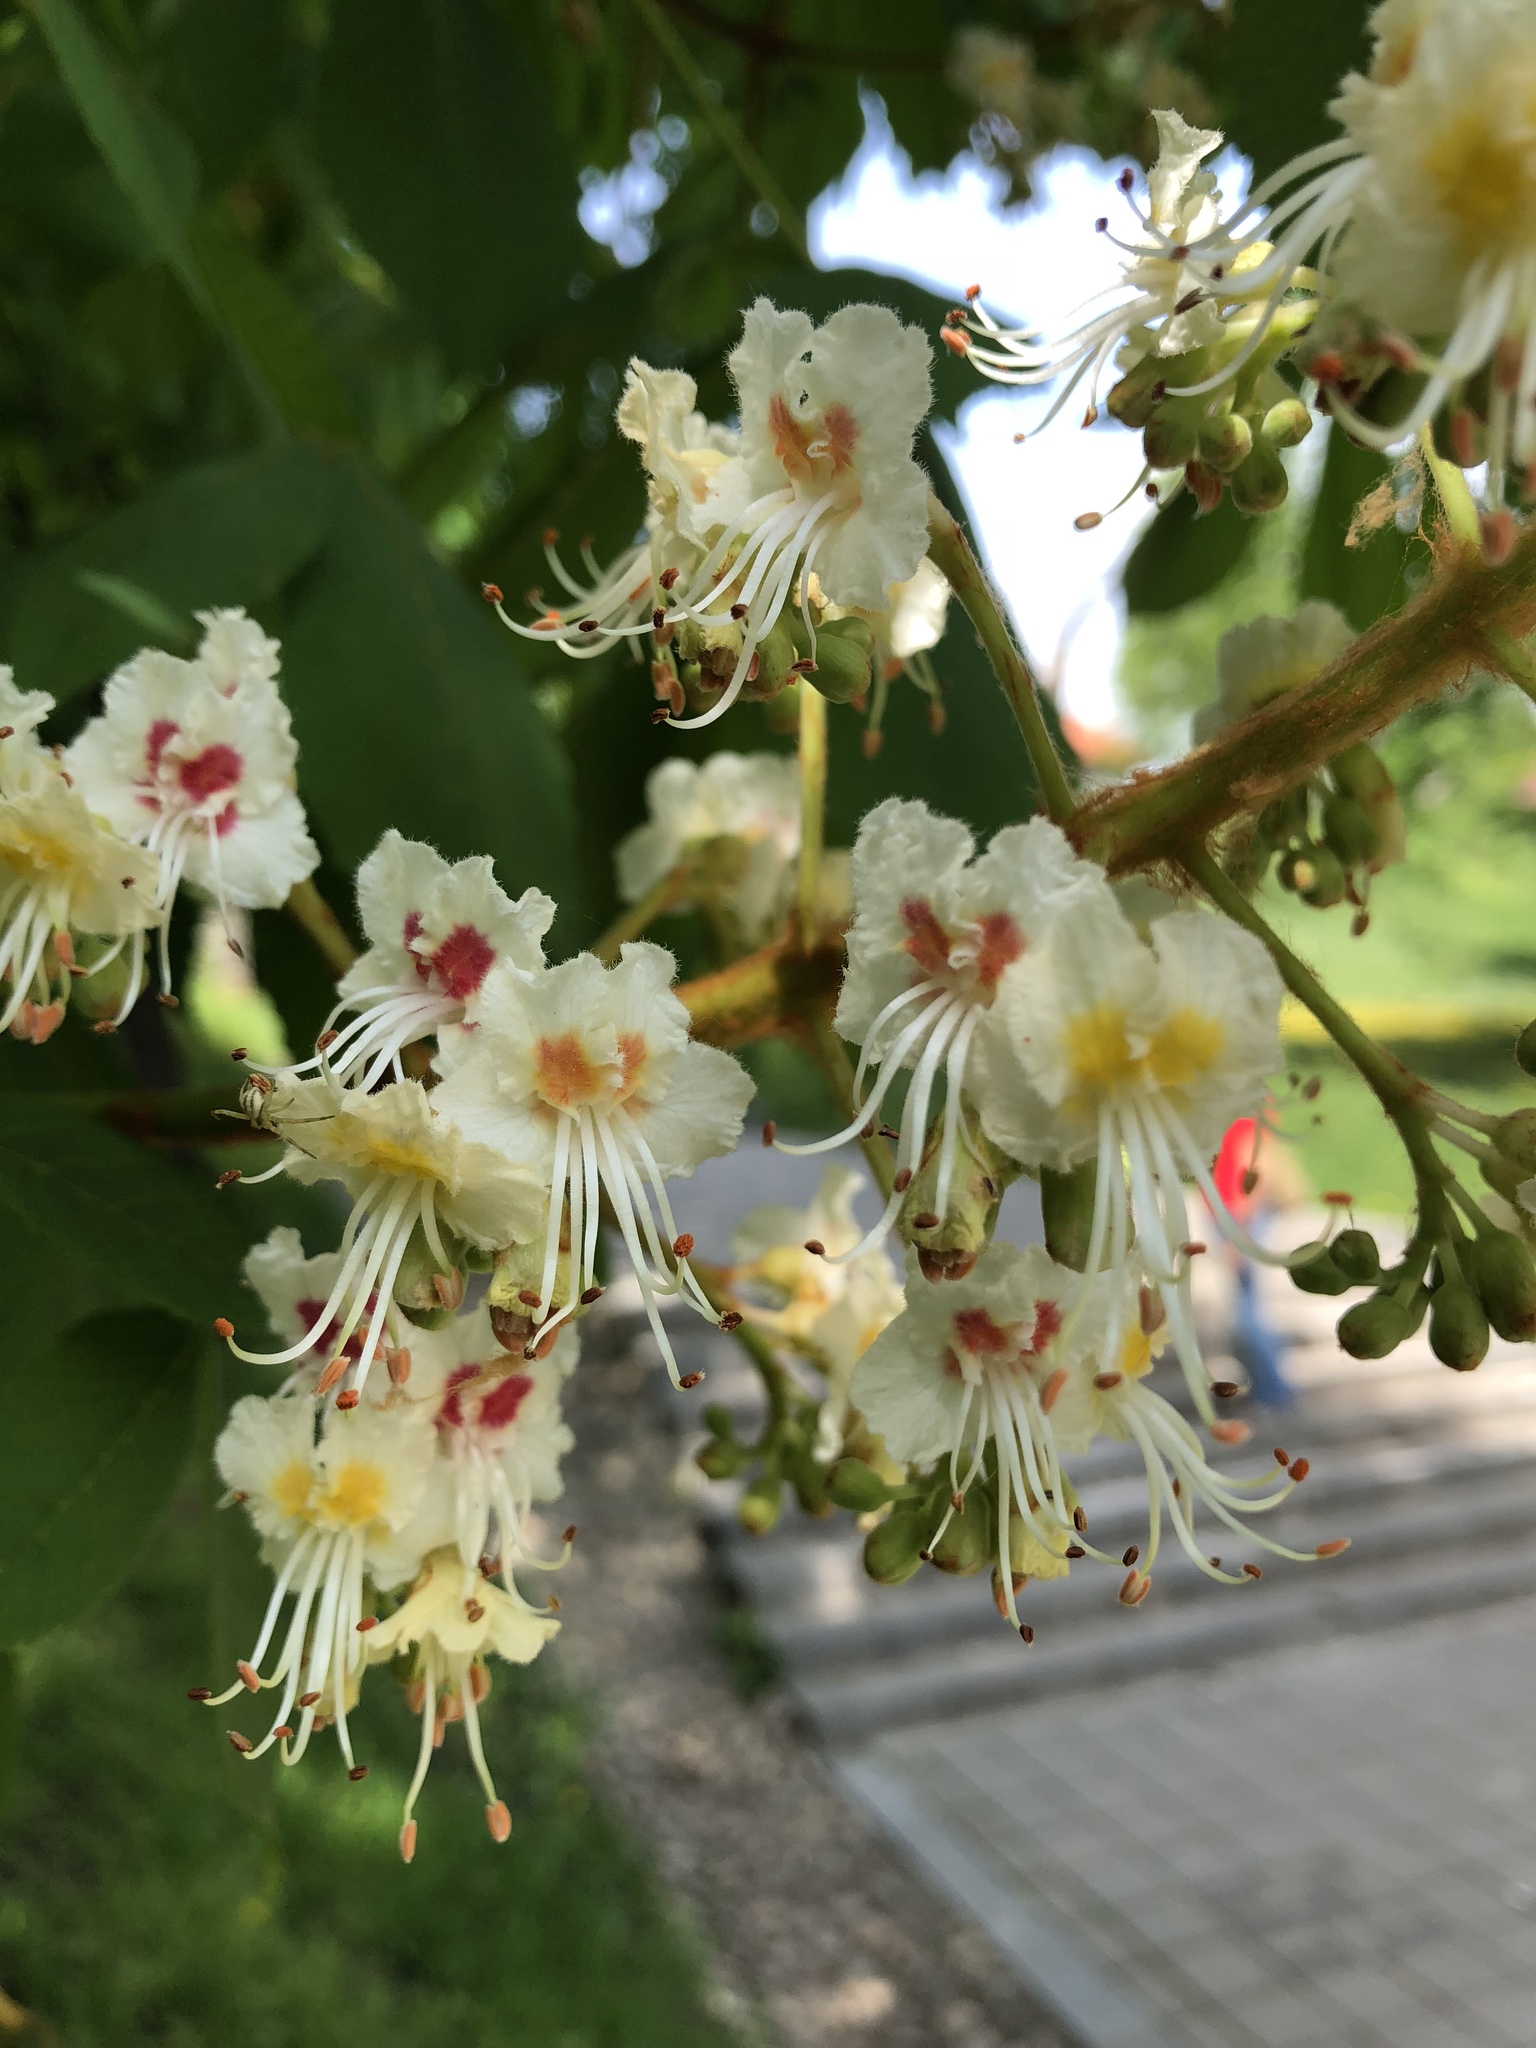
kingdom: Plantae
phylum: Tracheophyta
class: Magnoliopsida
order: Sapindales
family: Sapindaceae
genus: Aesculus
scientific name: Aesculus hippocastanum
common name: Horse-chestnut
